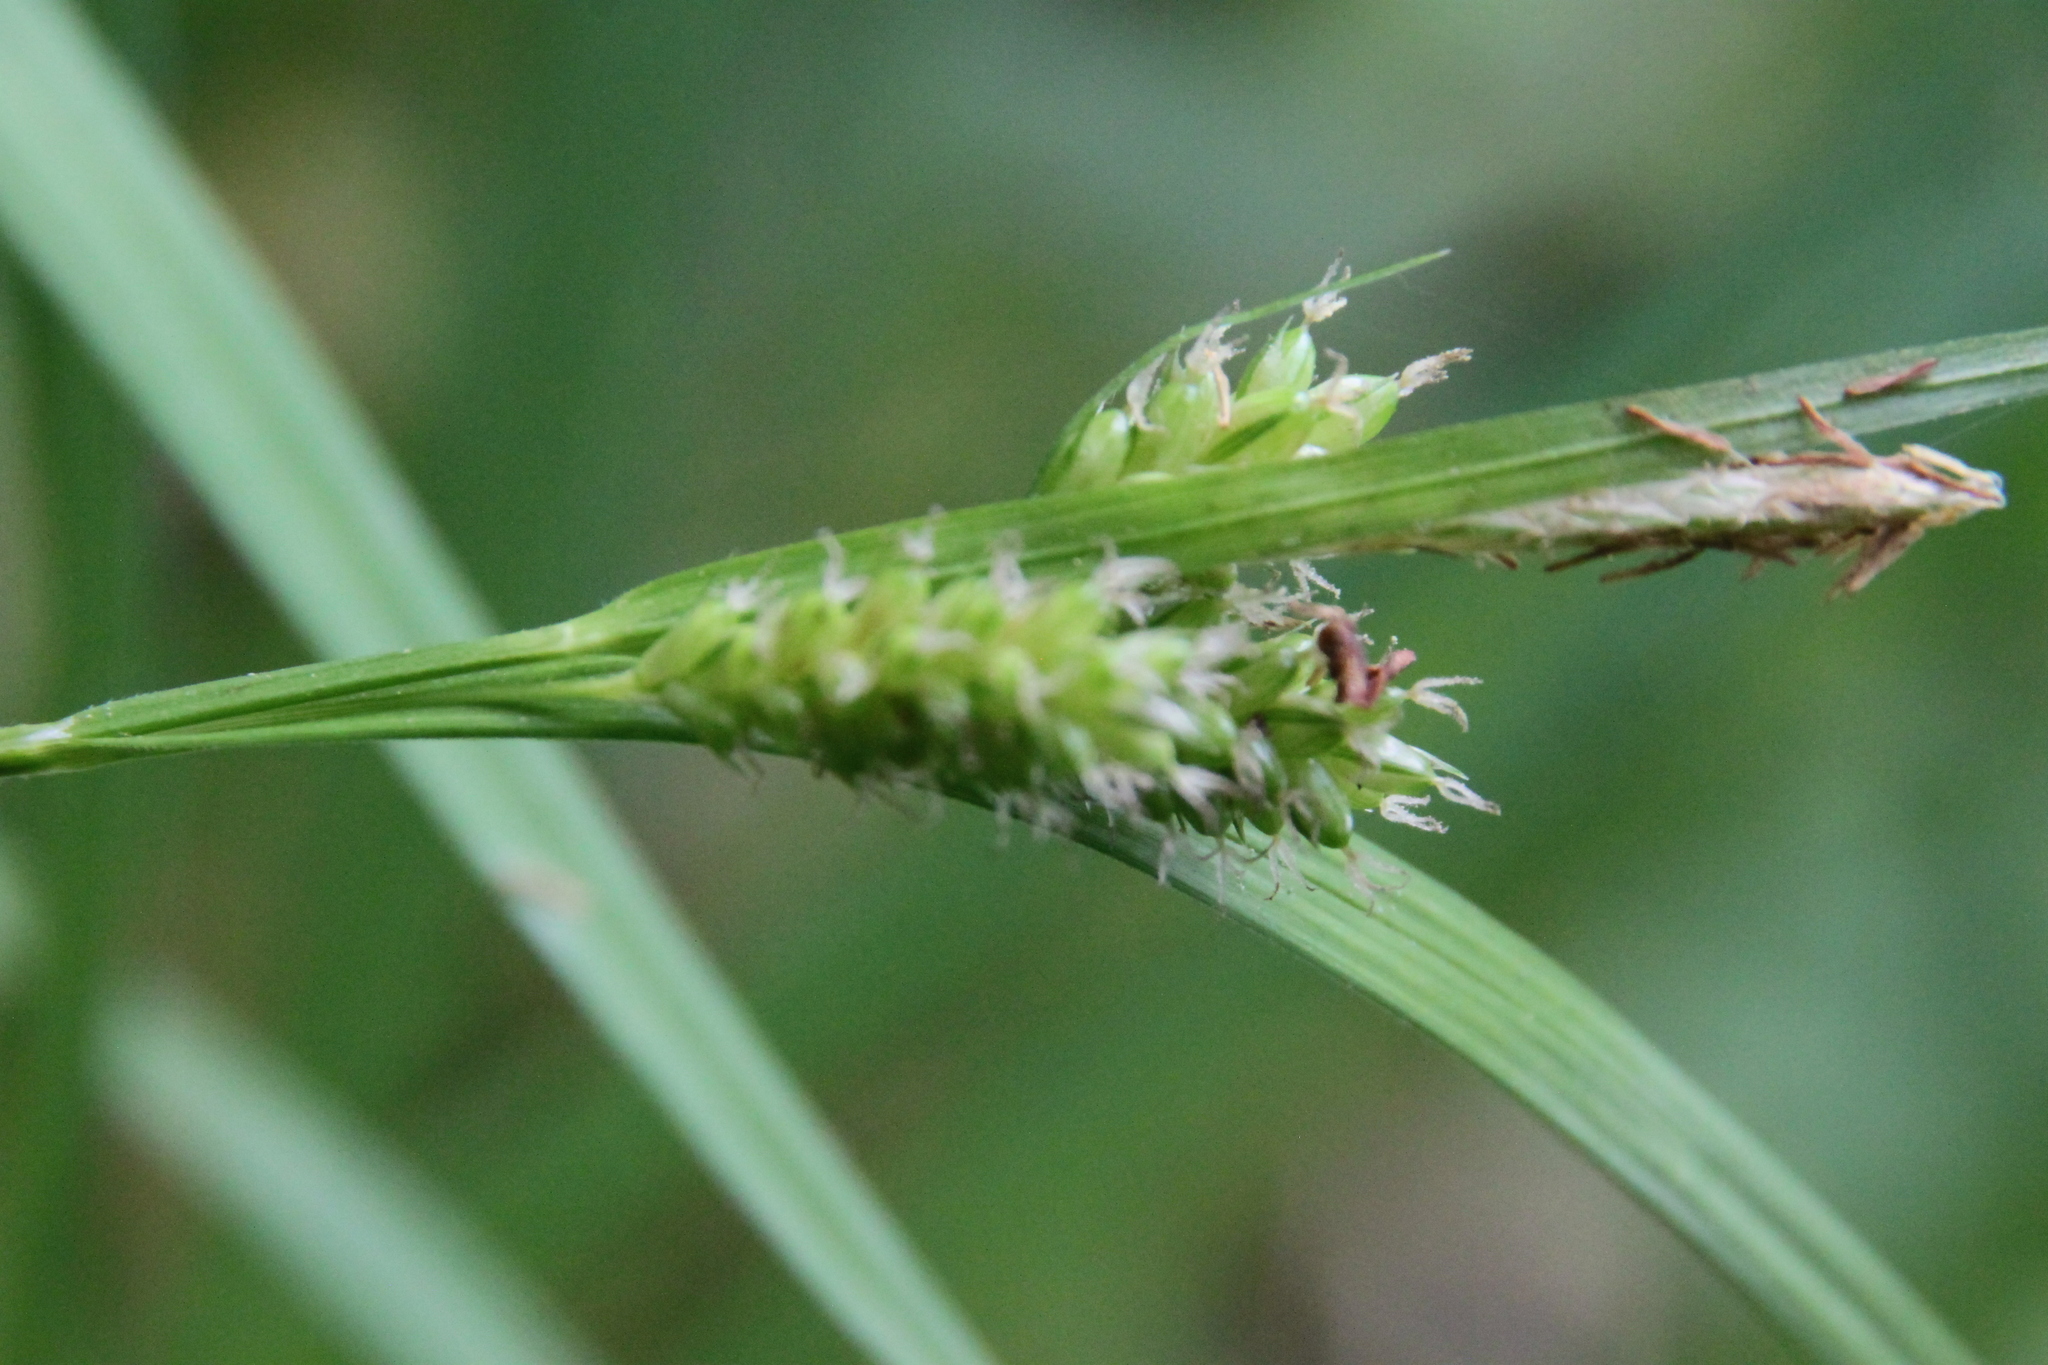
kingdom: Plantae
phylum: Tracheophyta
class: Liliopsida
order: Poales
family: Cyperaceae
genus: Carex
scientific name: Carex pallescens
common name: Pale sedge
